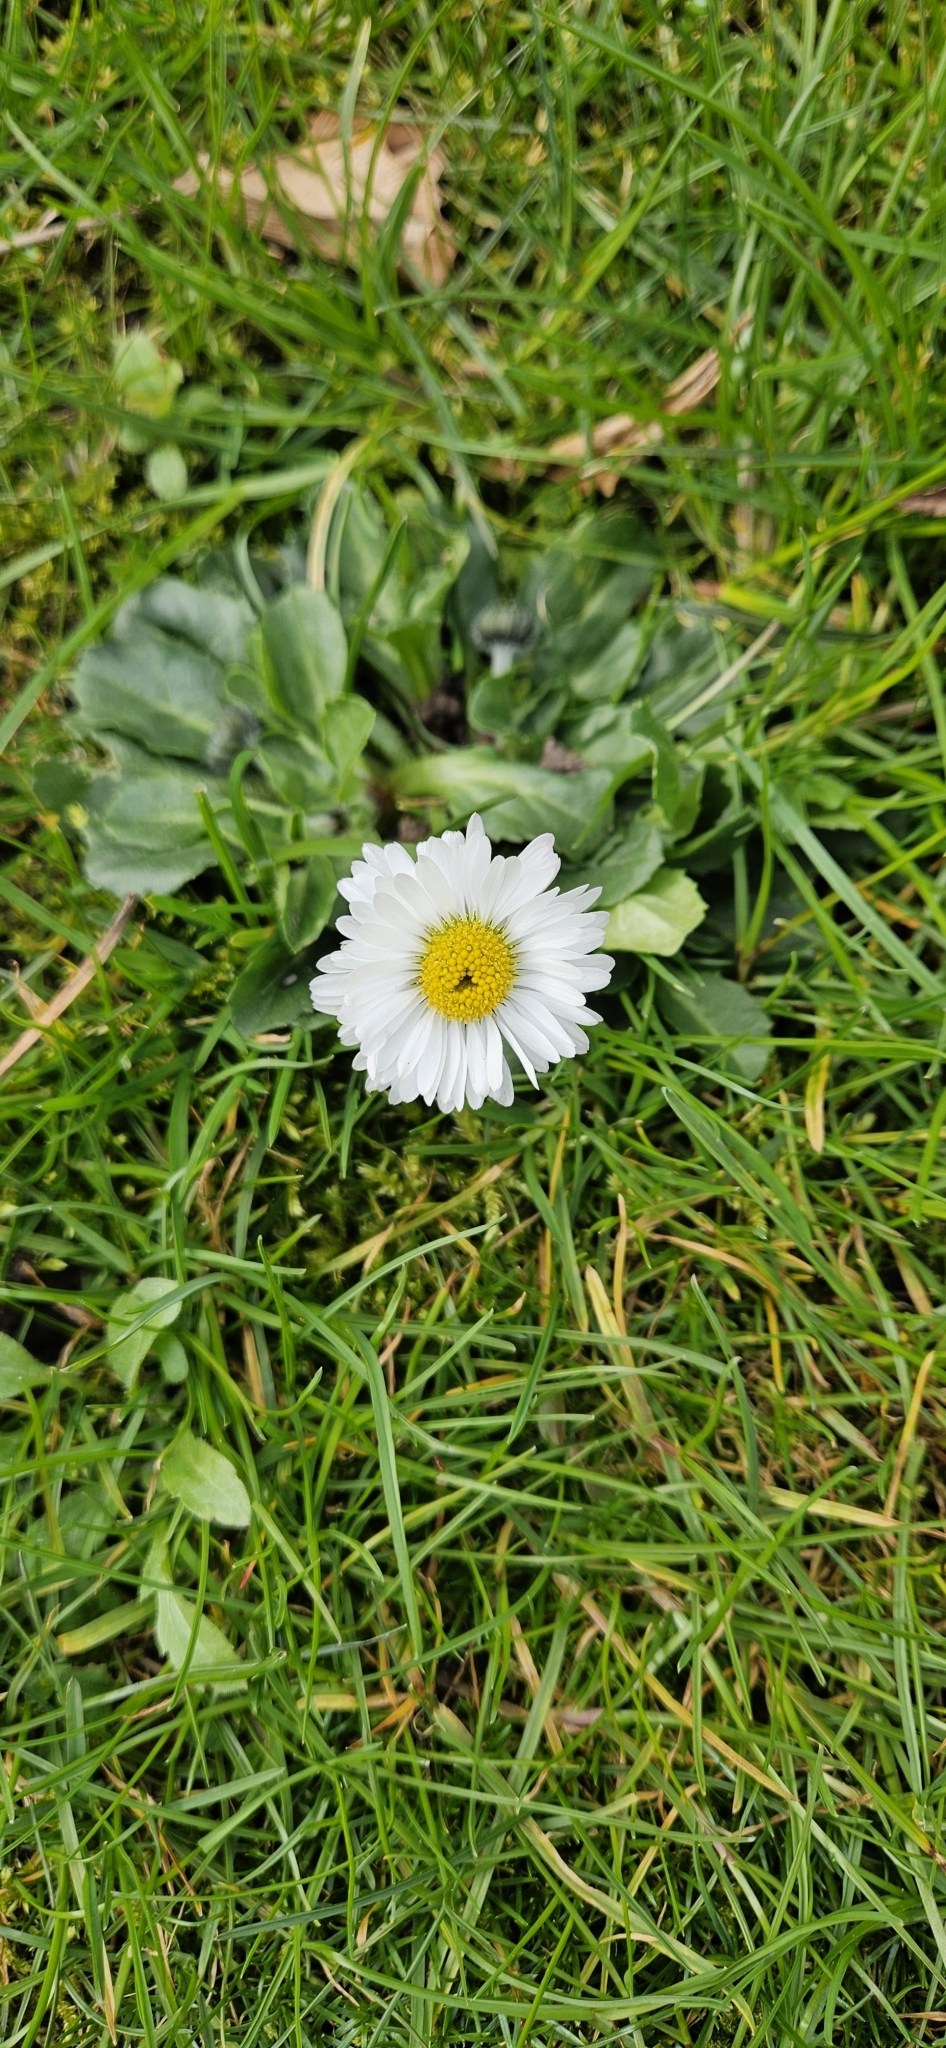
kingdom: Plantae
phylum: Tracheophyta
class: Magnoliopsida
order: Asterales
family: Asteraceae
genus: Bellis
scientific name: Bellis perennis
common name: Lawndaisy
